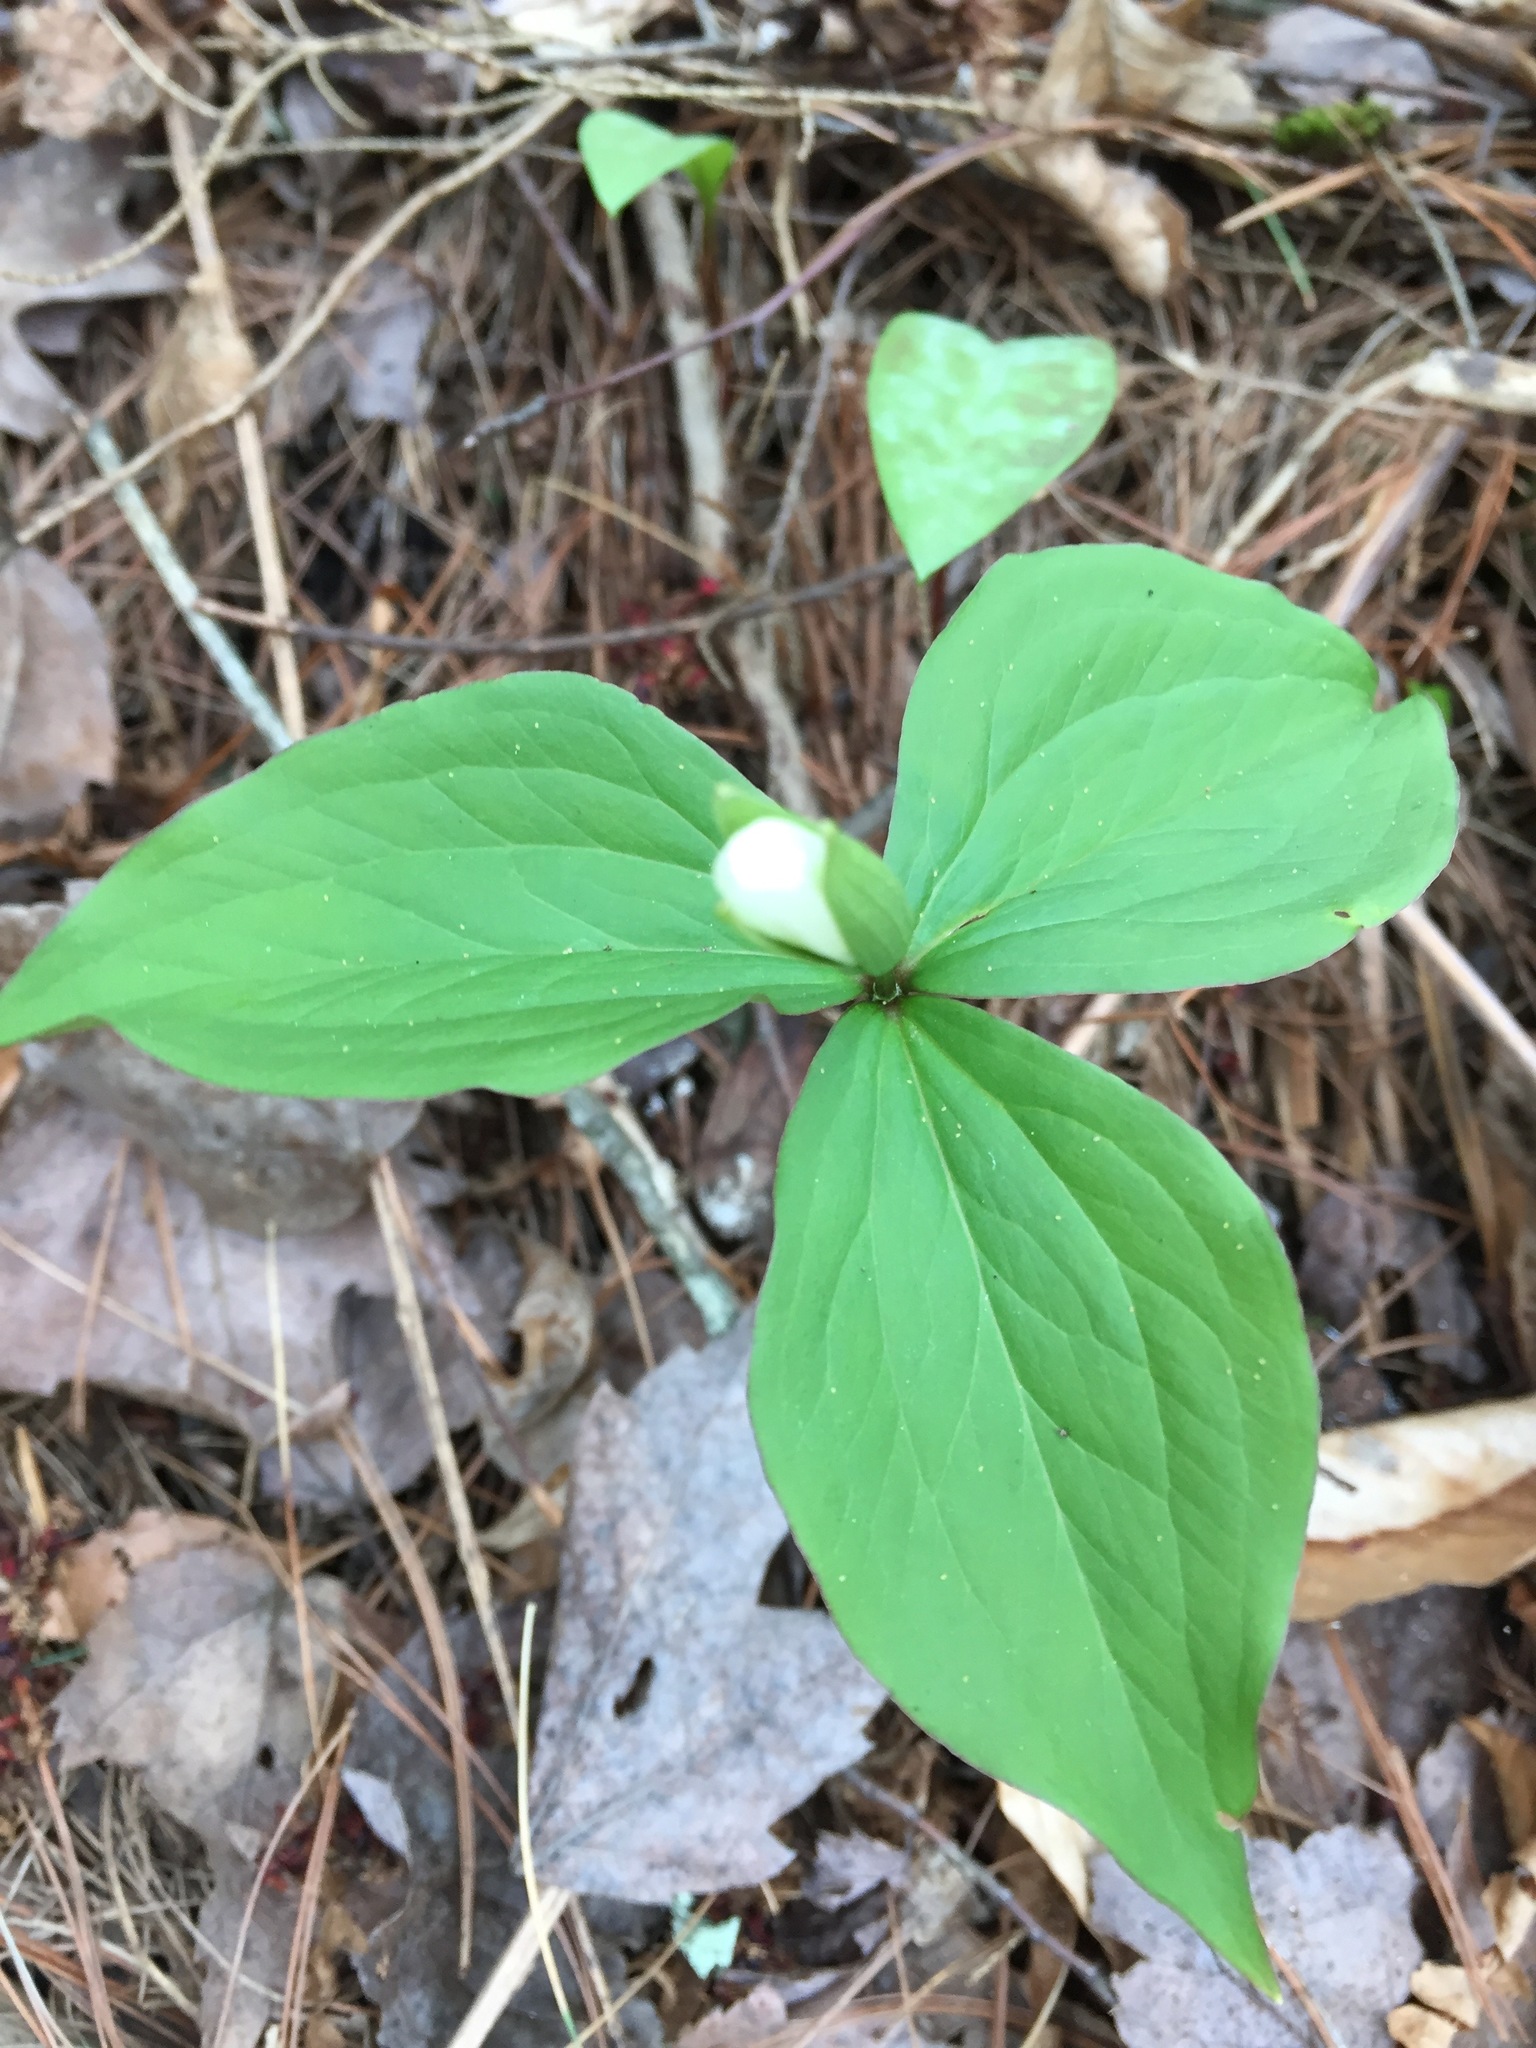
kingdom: Plantae
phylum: Tracheophyta
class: Liliopsida
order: Liliales
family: Melanthiaceae
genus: Trillium
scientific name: Trillium grandiflorum
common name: Great white trillium
